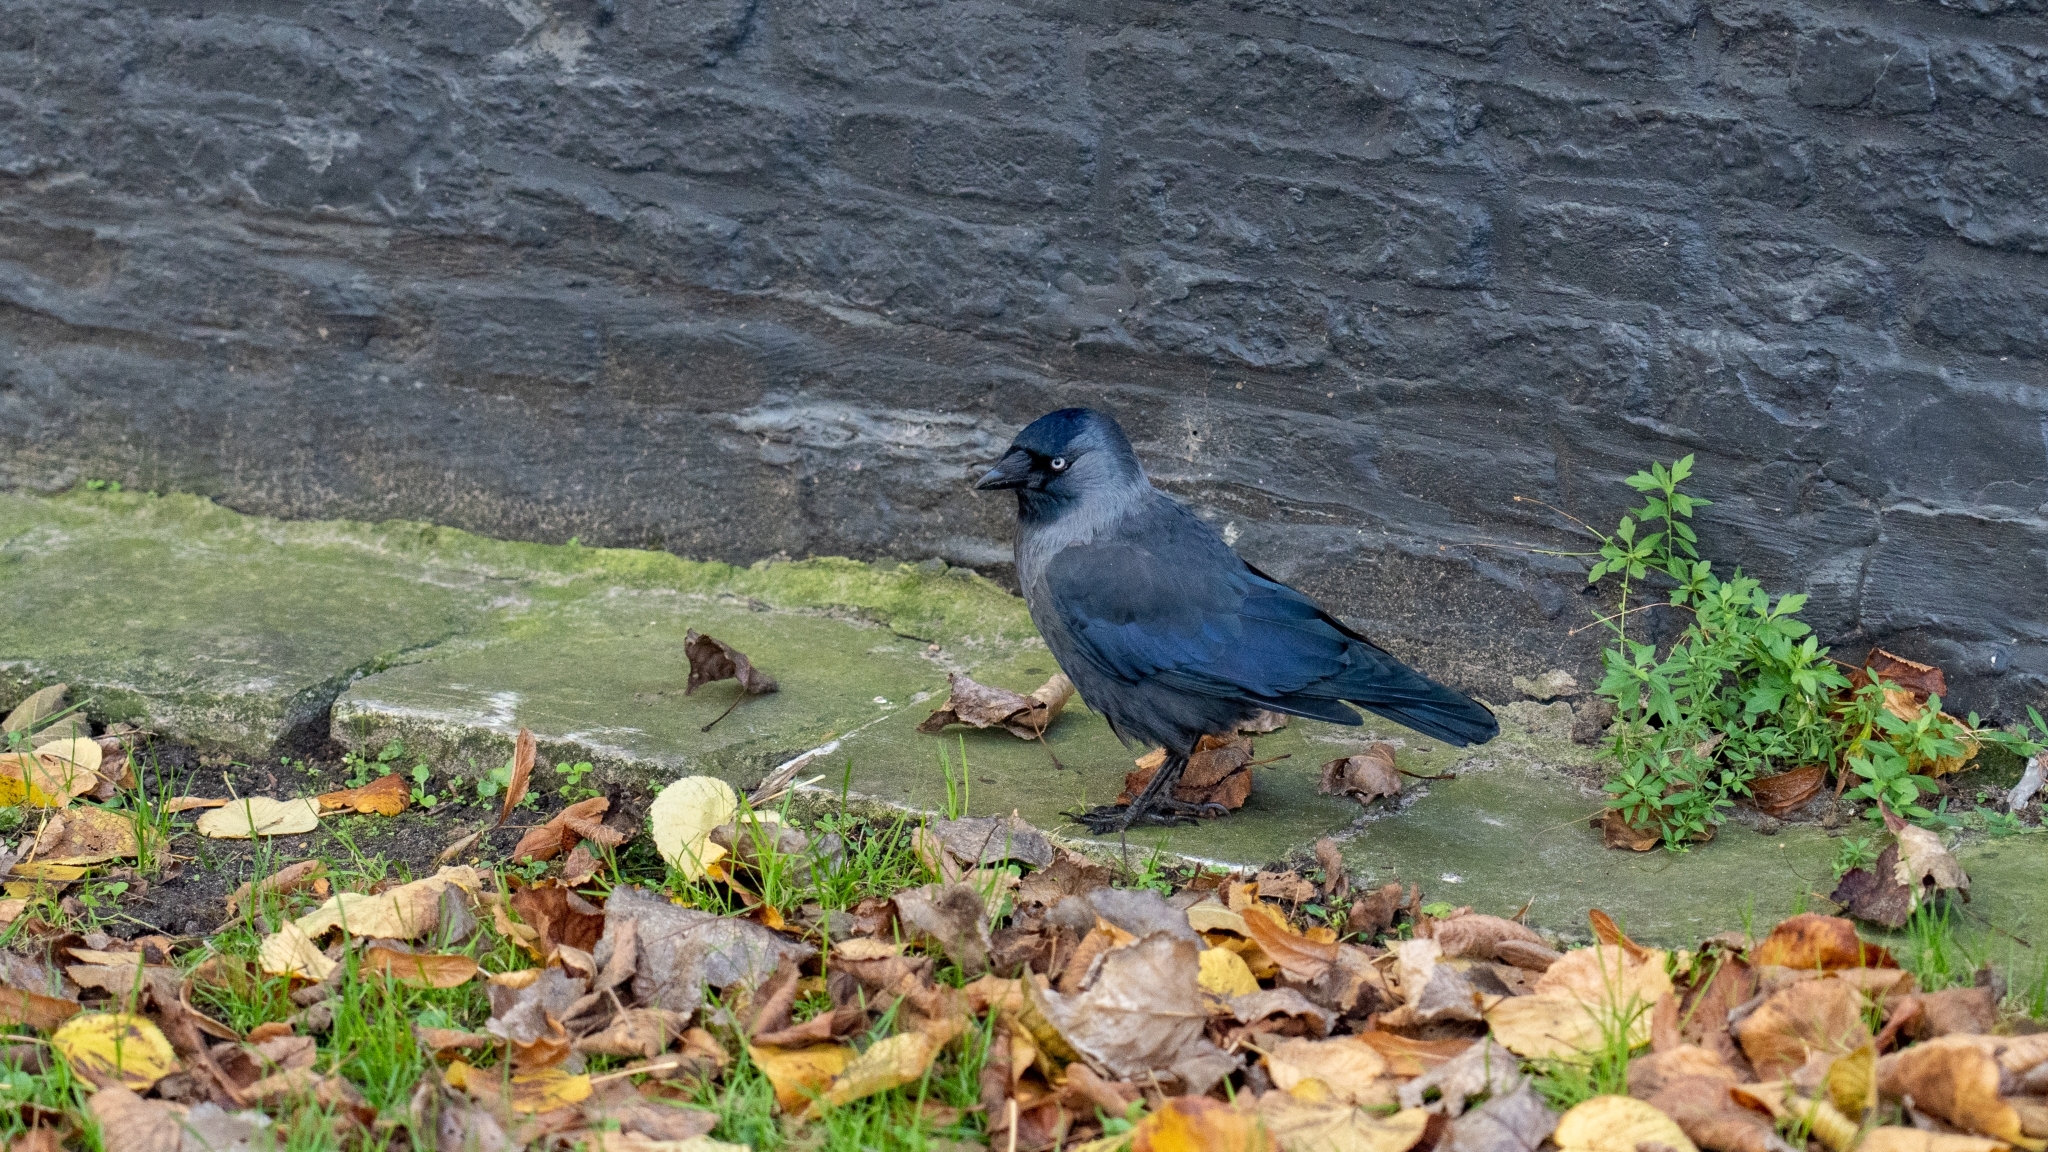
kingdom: Animalia
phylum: Chordata
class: Aves
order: Passeriformes
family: Corvidae
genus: Coloeus
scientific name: Coloeus monedula
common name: Western jackdaw
